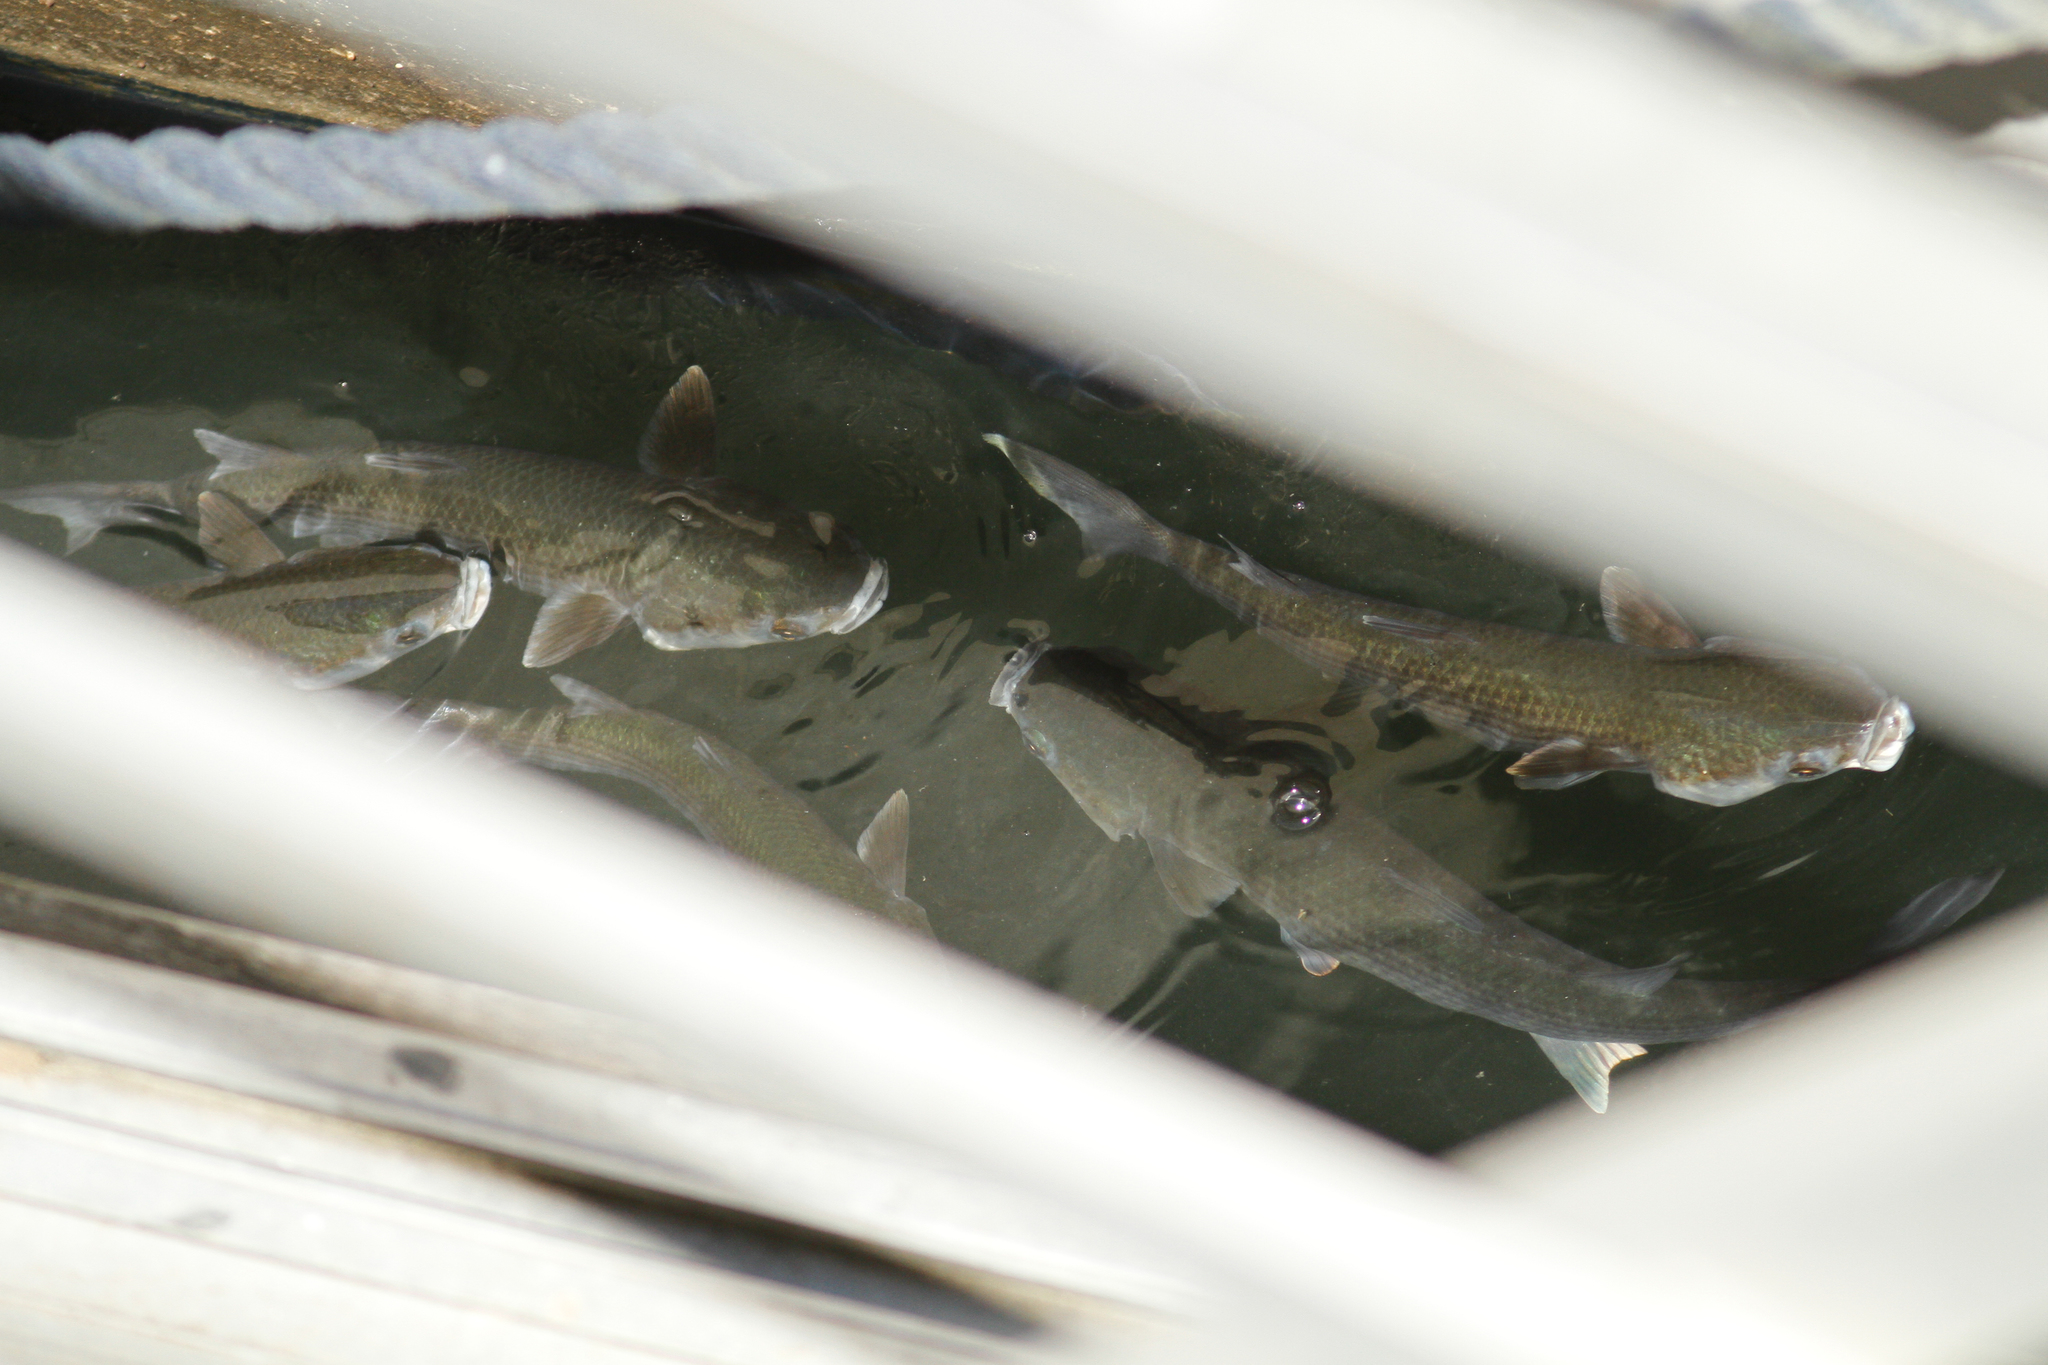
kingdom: Animalia
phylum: Chordata
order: Mugiliformes
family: Mugilidae
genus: Mugil
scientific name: Mugil cephalus
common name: Grey mullet
